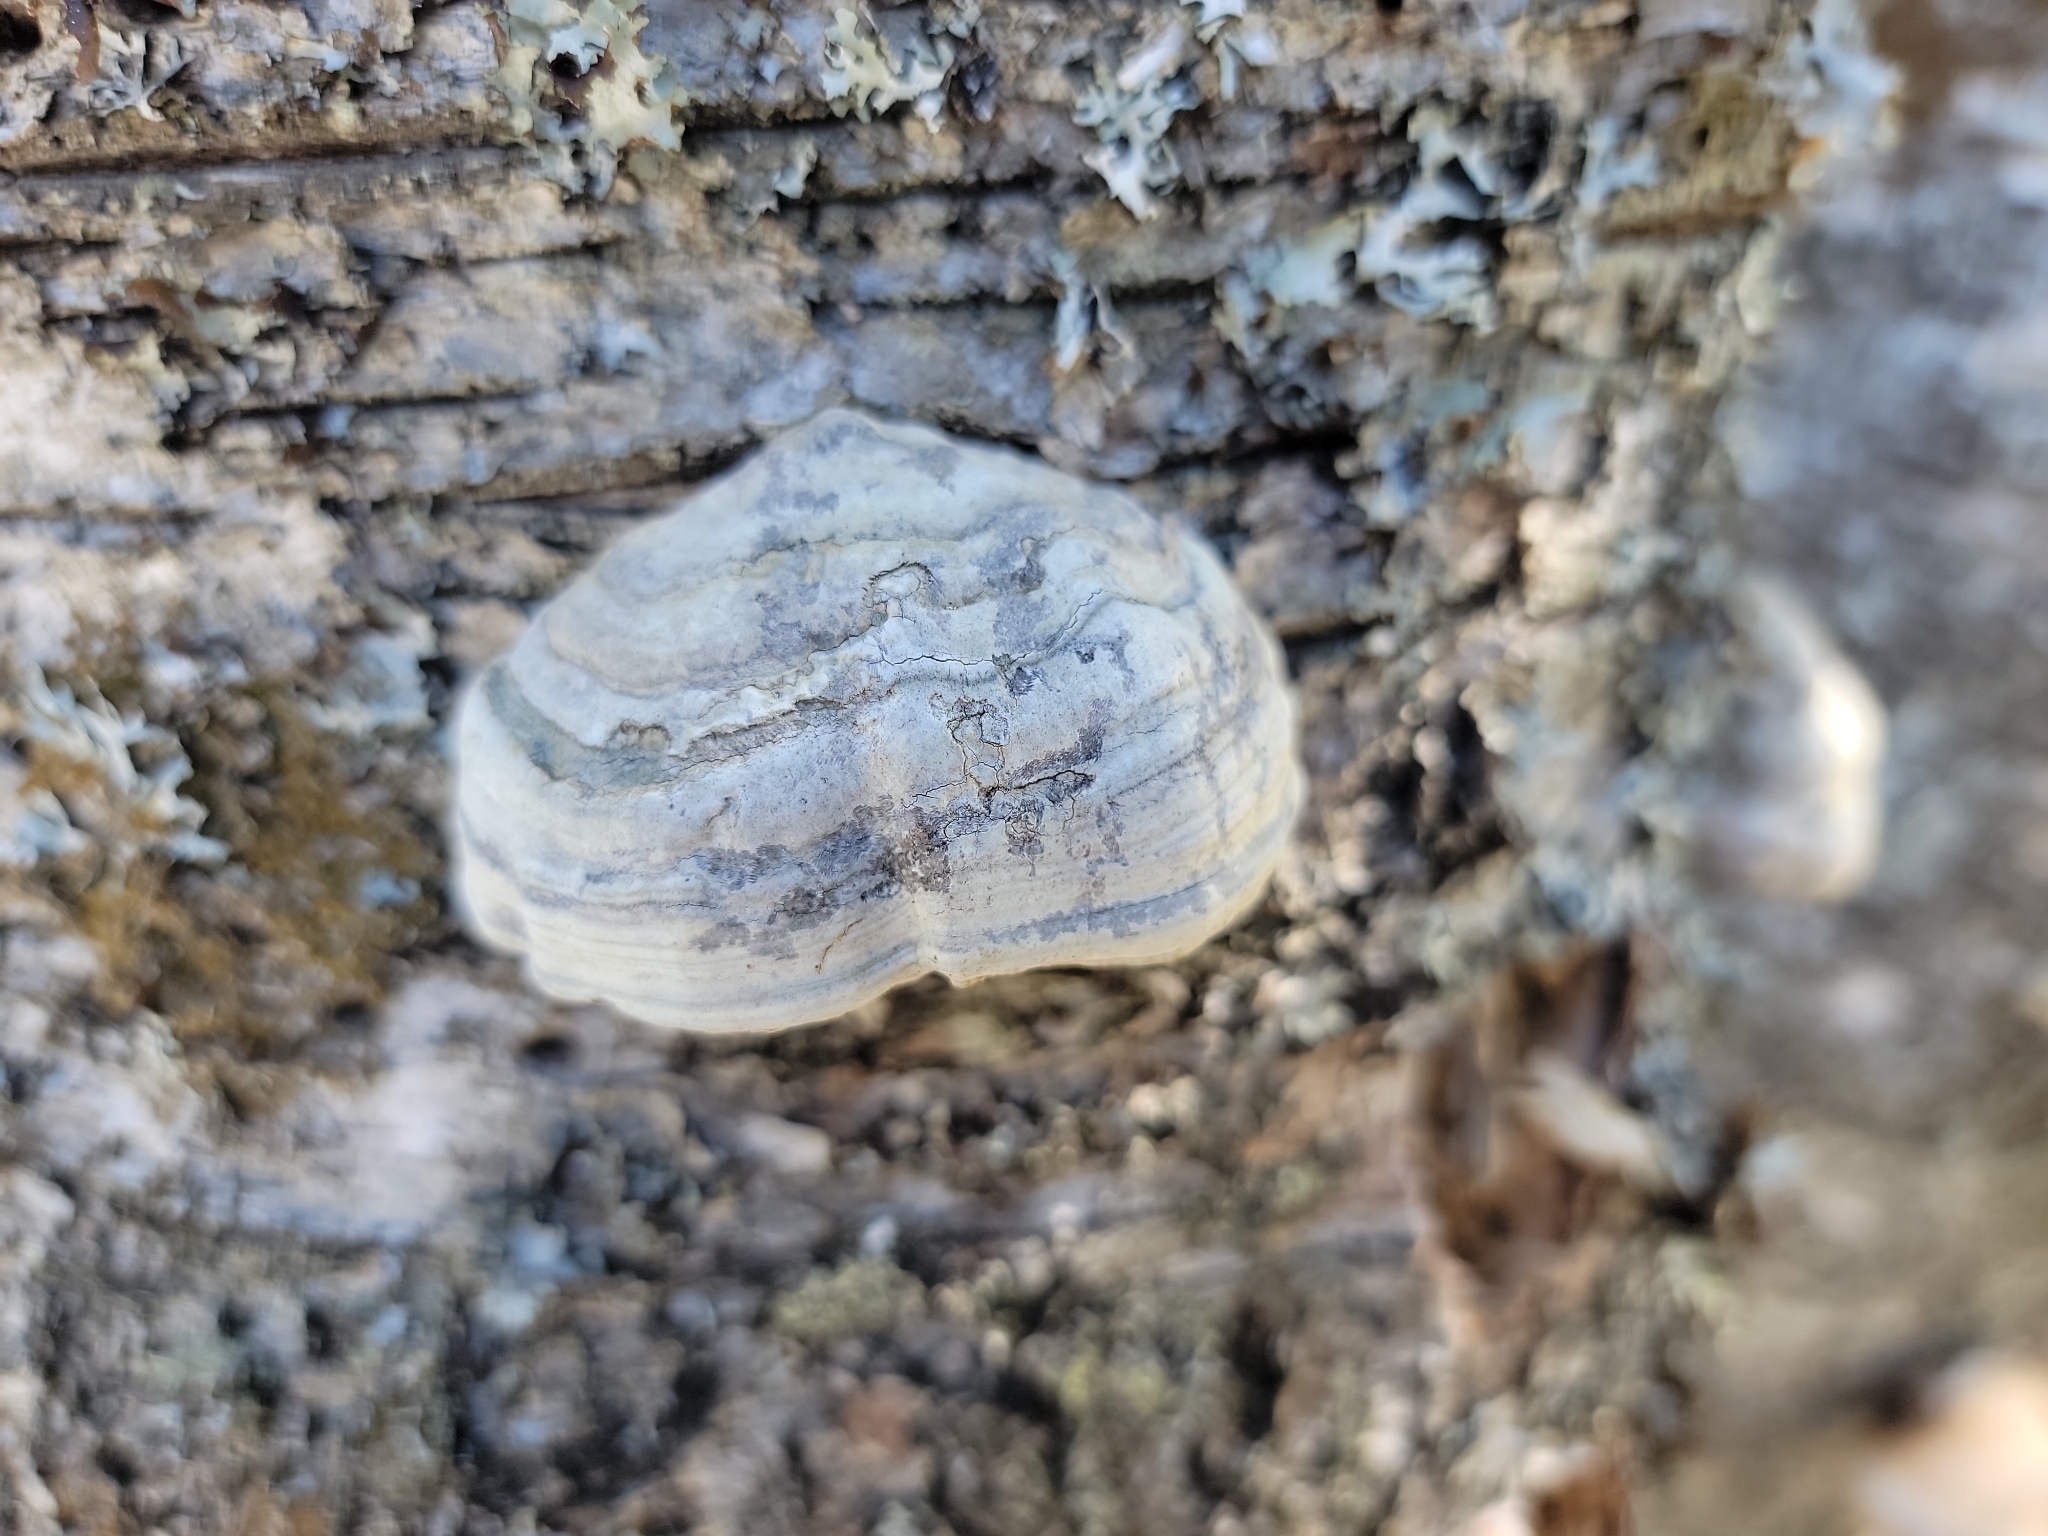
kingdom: Fungi
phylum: Basidiomycota
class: Agaricomycetes
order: Polyporales
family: Polyporaceae
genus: Fomes
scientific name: Fomes fomentarius
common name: Hoof fungus
